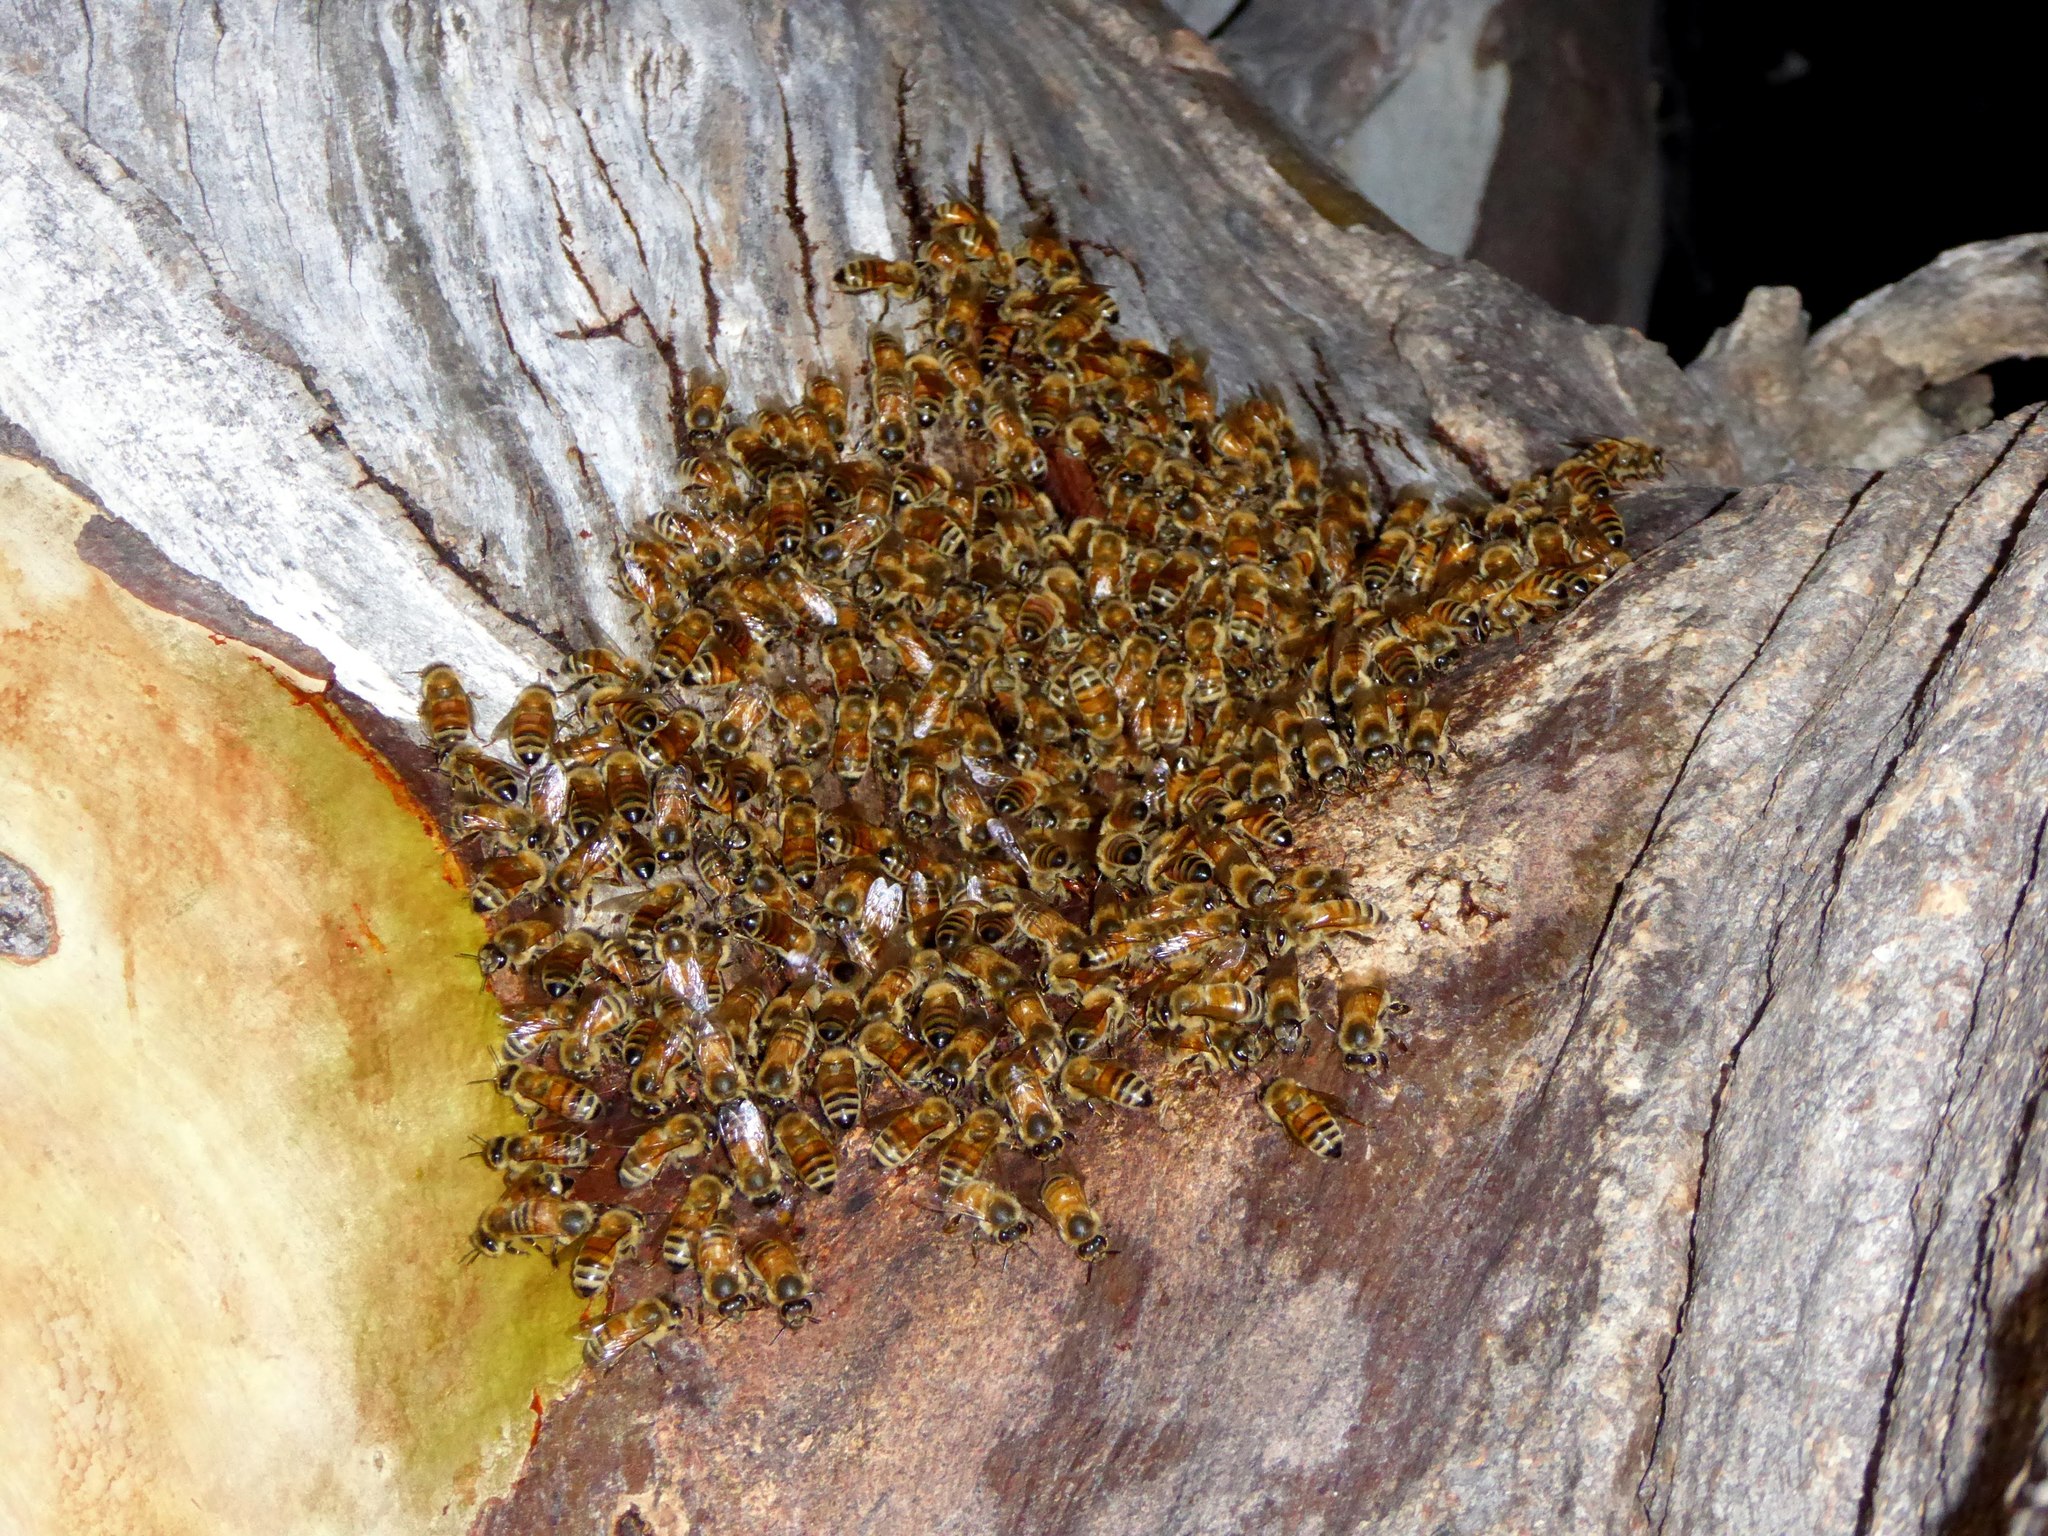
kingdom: Animalia
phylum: Arthropoda
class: Insecta
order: Hymenoptera
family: Apidae
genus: Apis
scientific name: Apis mellifera
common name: Honey bee
